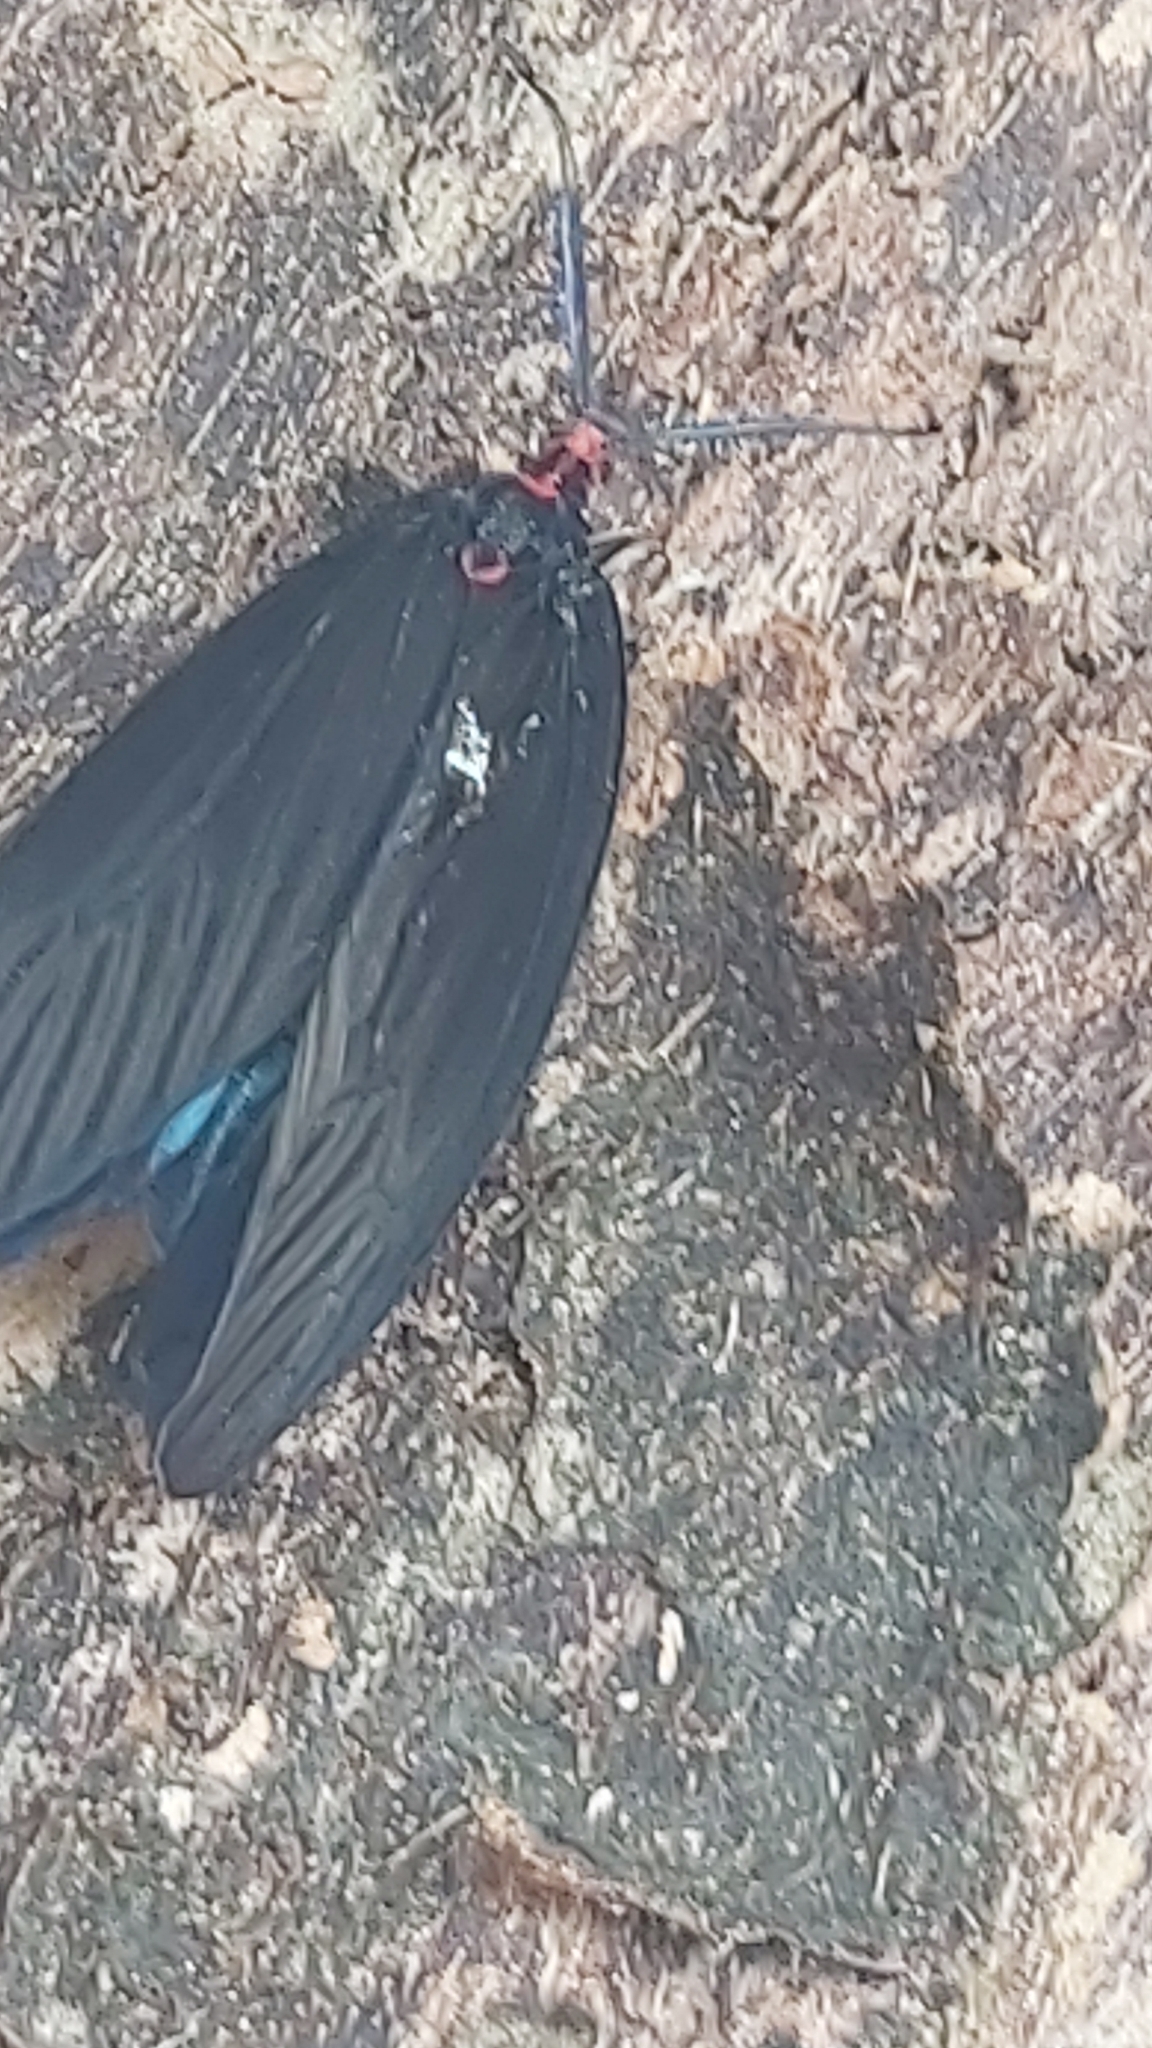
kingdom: Animalia
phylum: Arthropoda
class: Insecta
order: Lepidoptera
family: Zygaenidae
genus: Histia
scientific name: Histia flabellicornis
